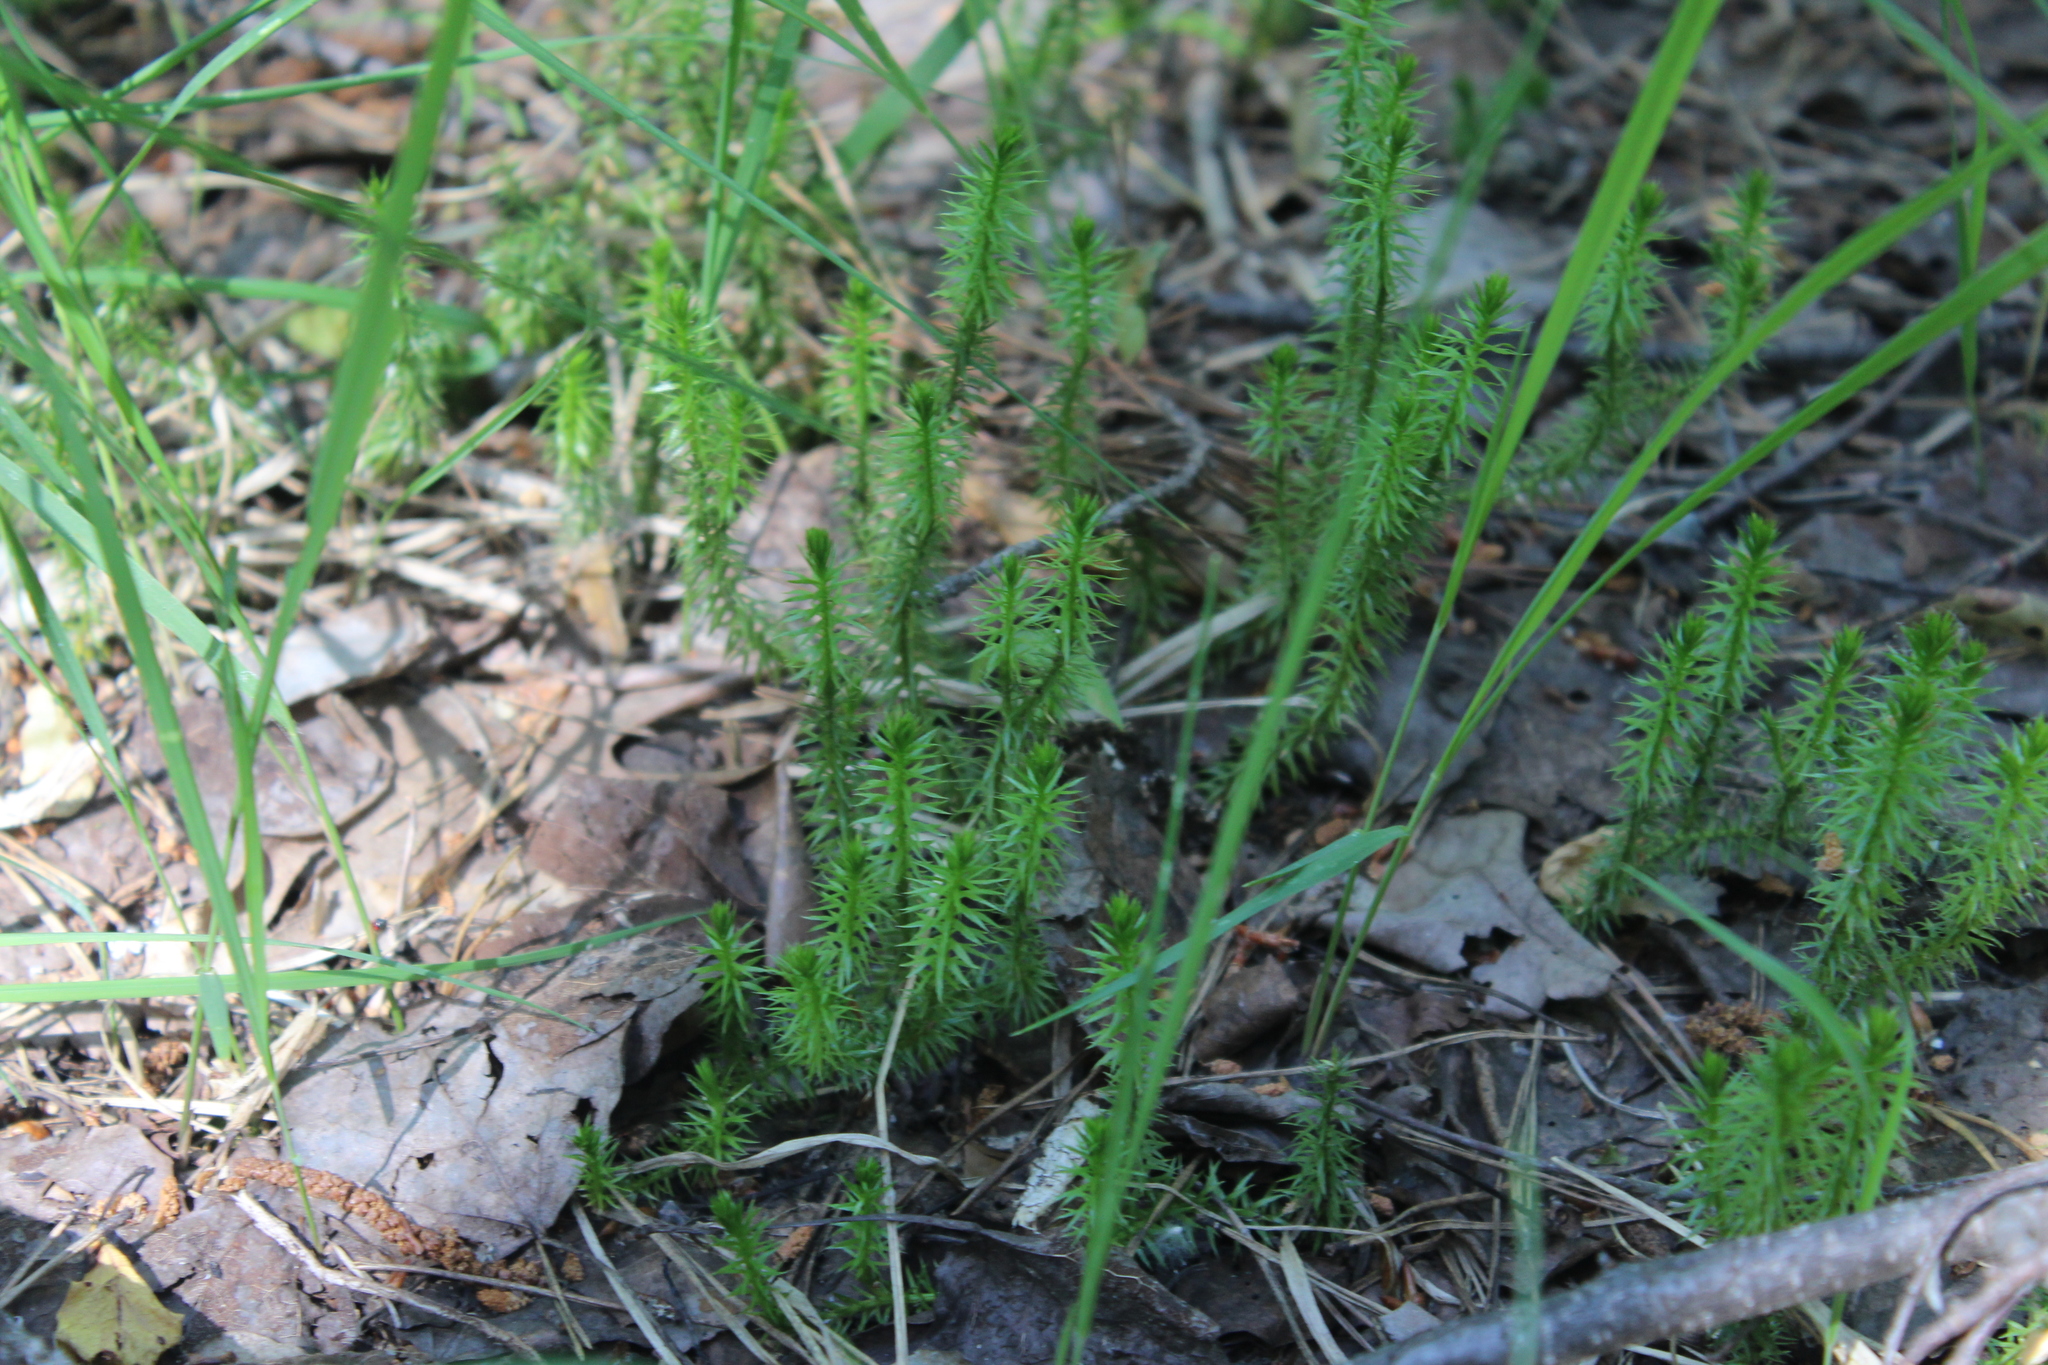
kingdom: Plantae
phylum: Tracheophyta
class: Lycopodiopsida
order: Lycopodiales
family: Lycopodiaceae
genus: Spinulum
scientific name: Spinulum annotinum
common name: Interrupted club-moss
